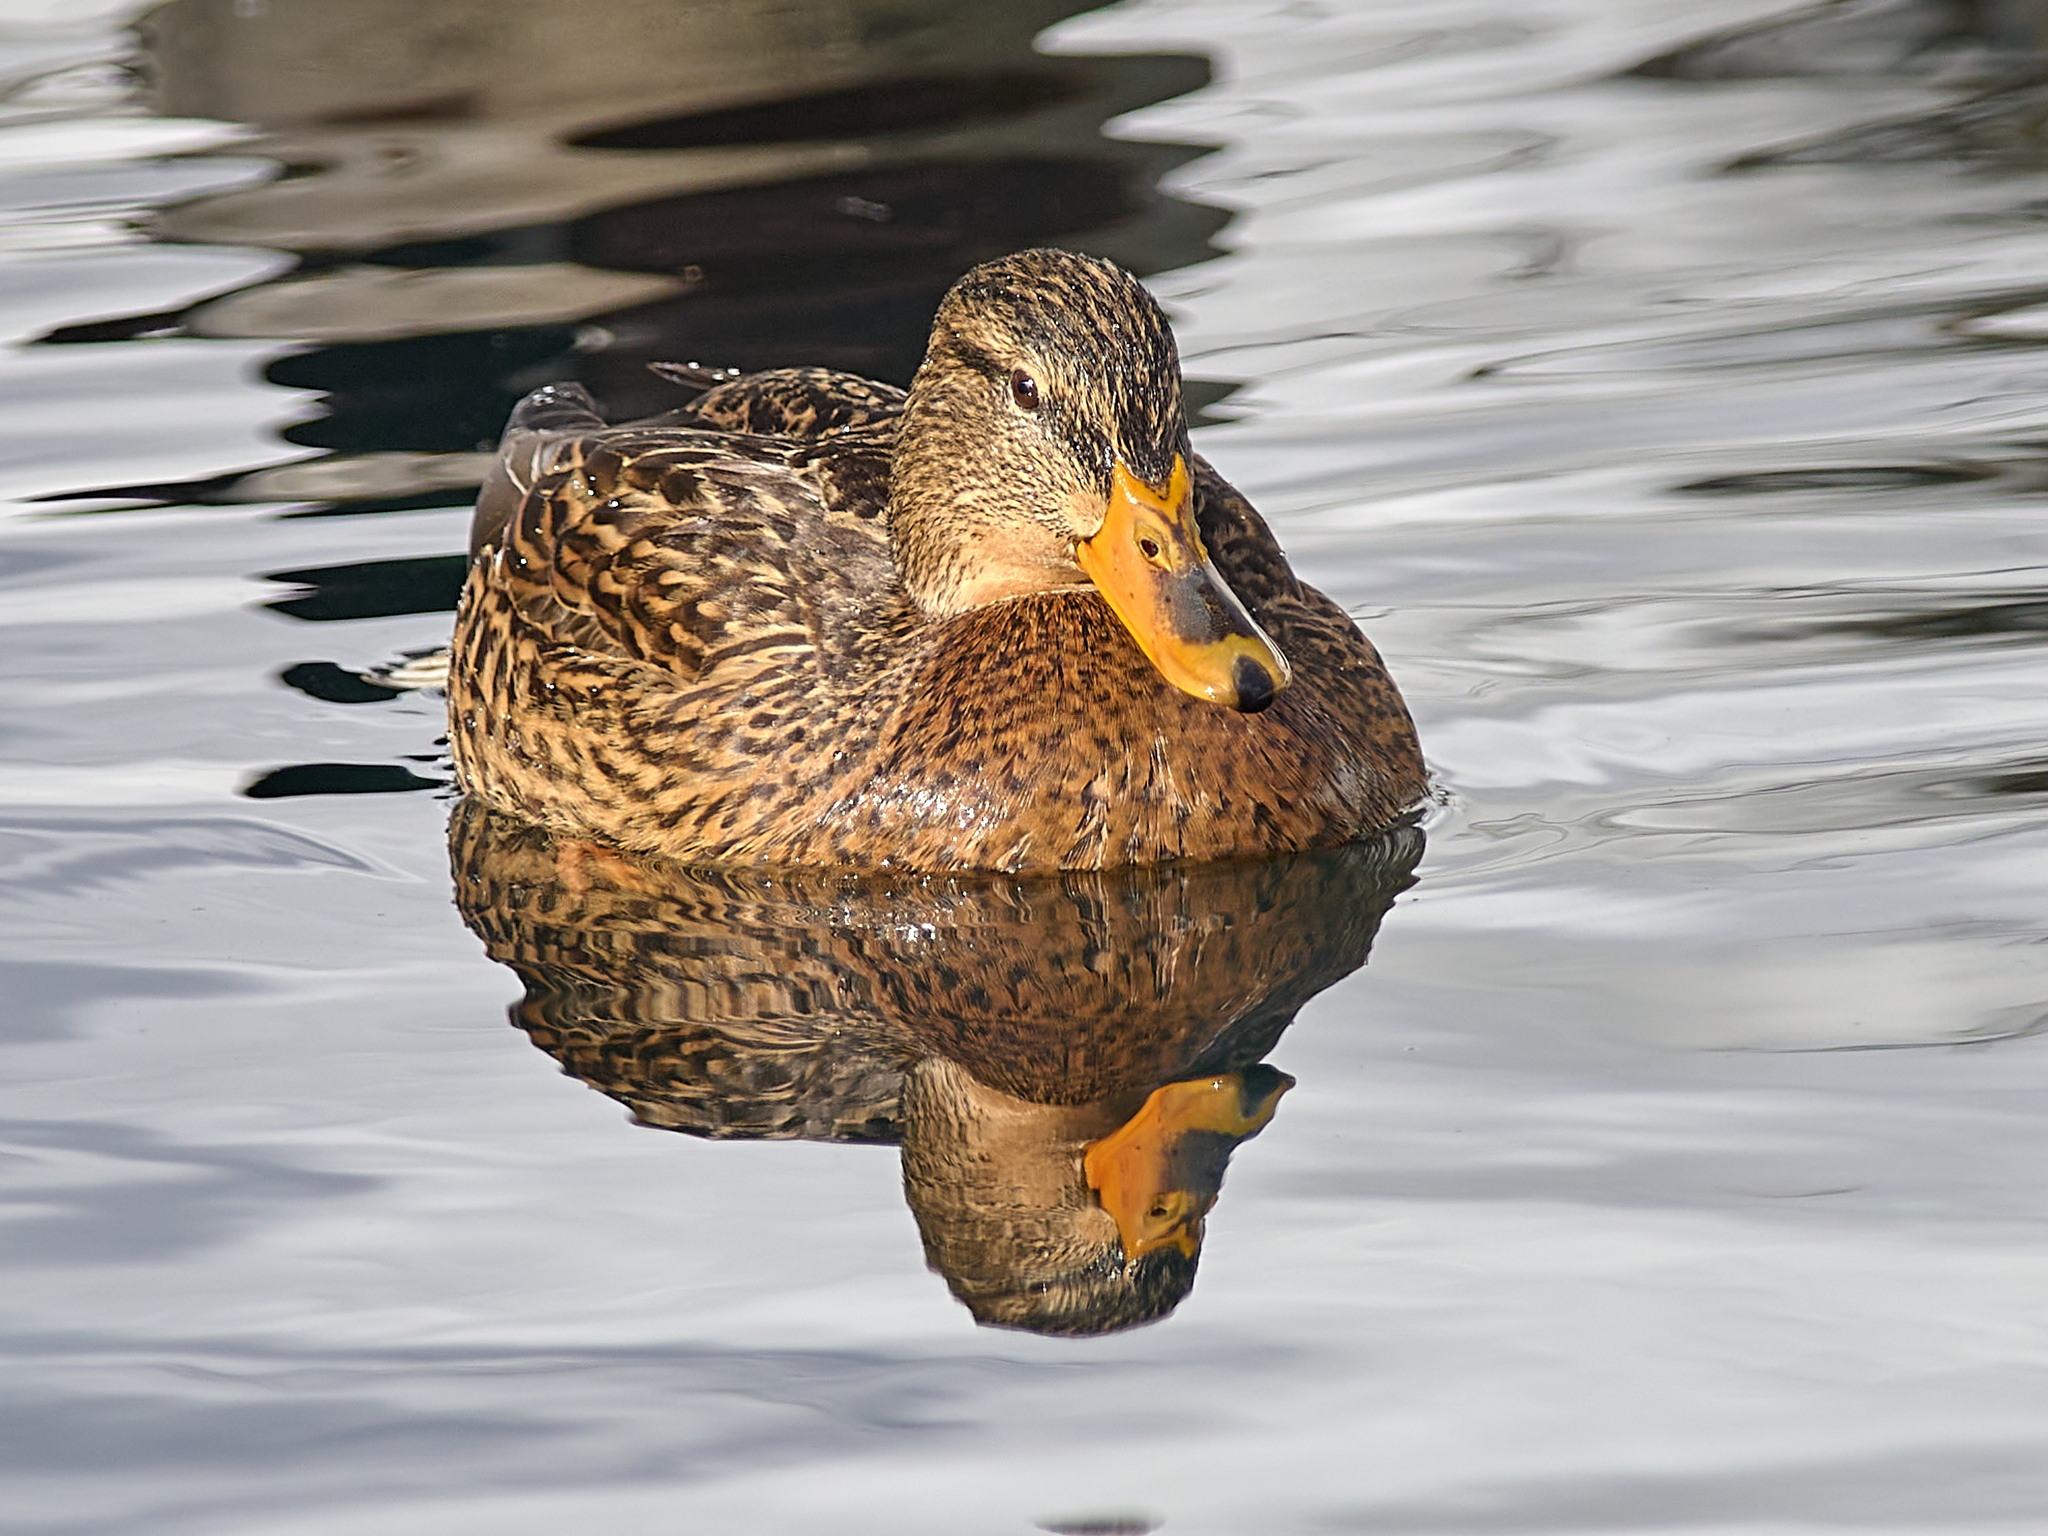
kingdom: Animalia
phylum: Chordata
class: Aves
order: Anseriformes
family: Anatidae
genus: Anas
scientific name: Anas platyrhynchos
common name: Mallard
